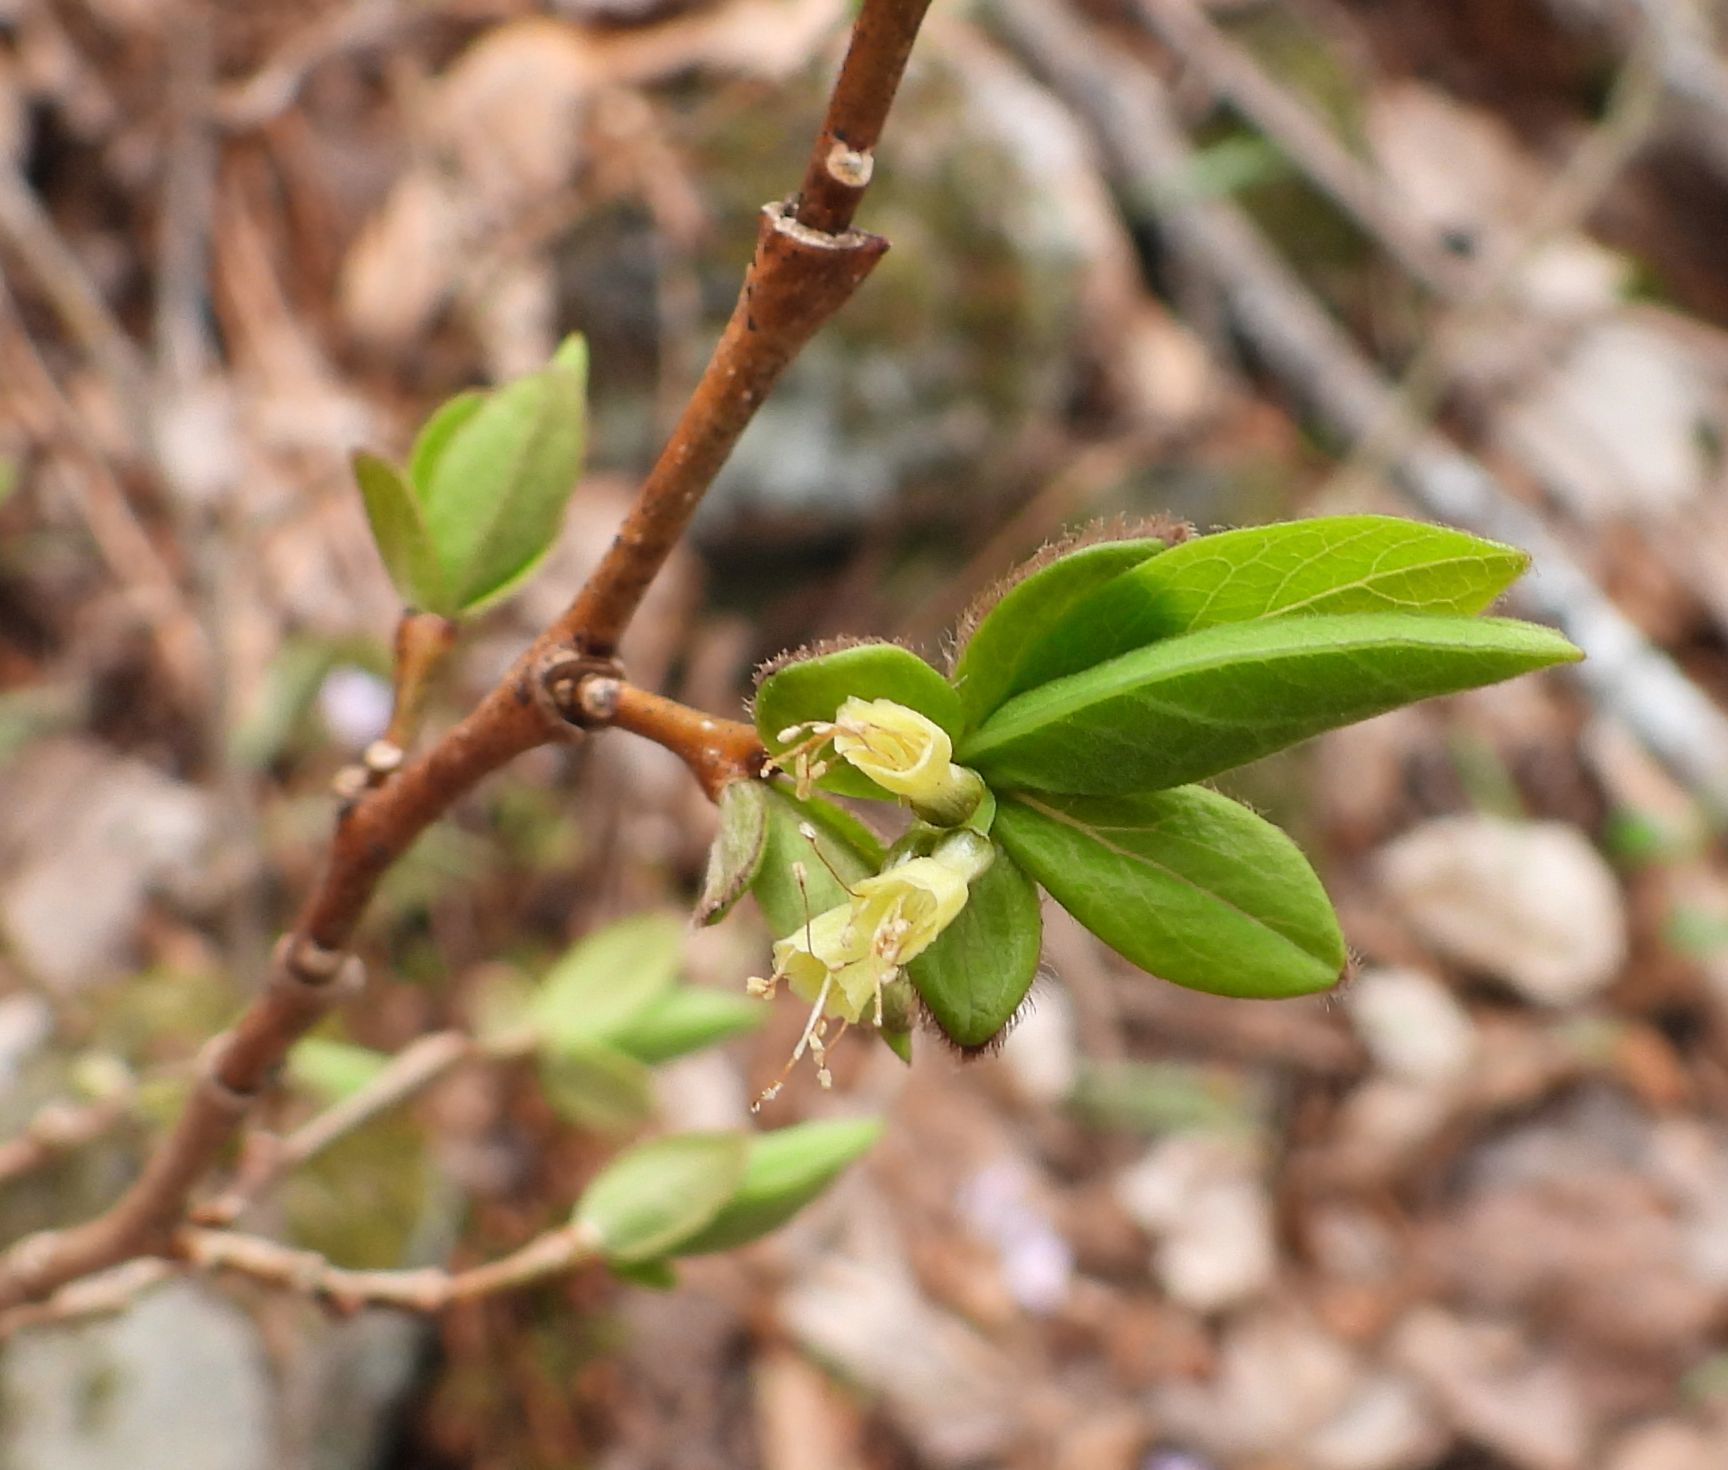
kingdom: Plantae
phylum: Tracheophyta
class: Magnoliopsida
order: Malvales
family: Thymelaeaceae
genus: Dirca
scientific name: Dirca palustris
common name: Leatherwood
